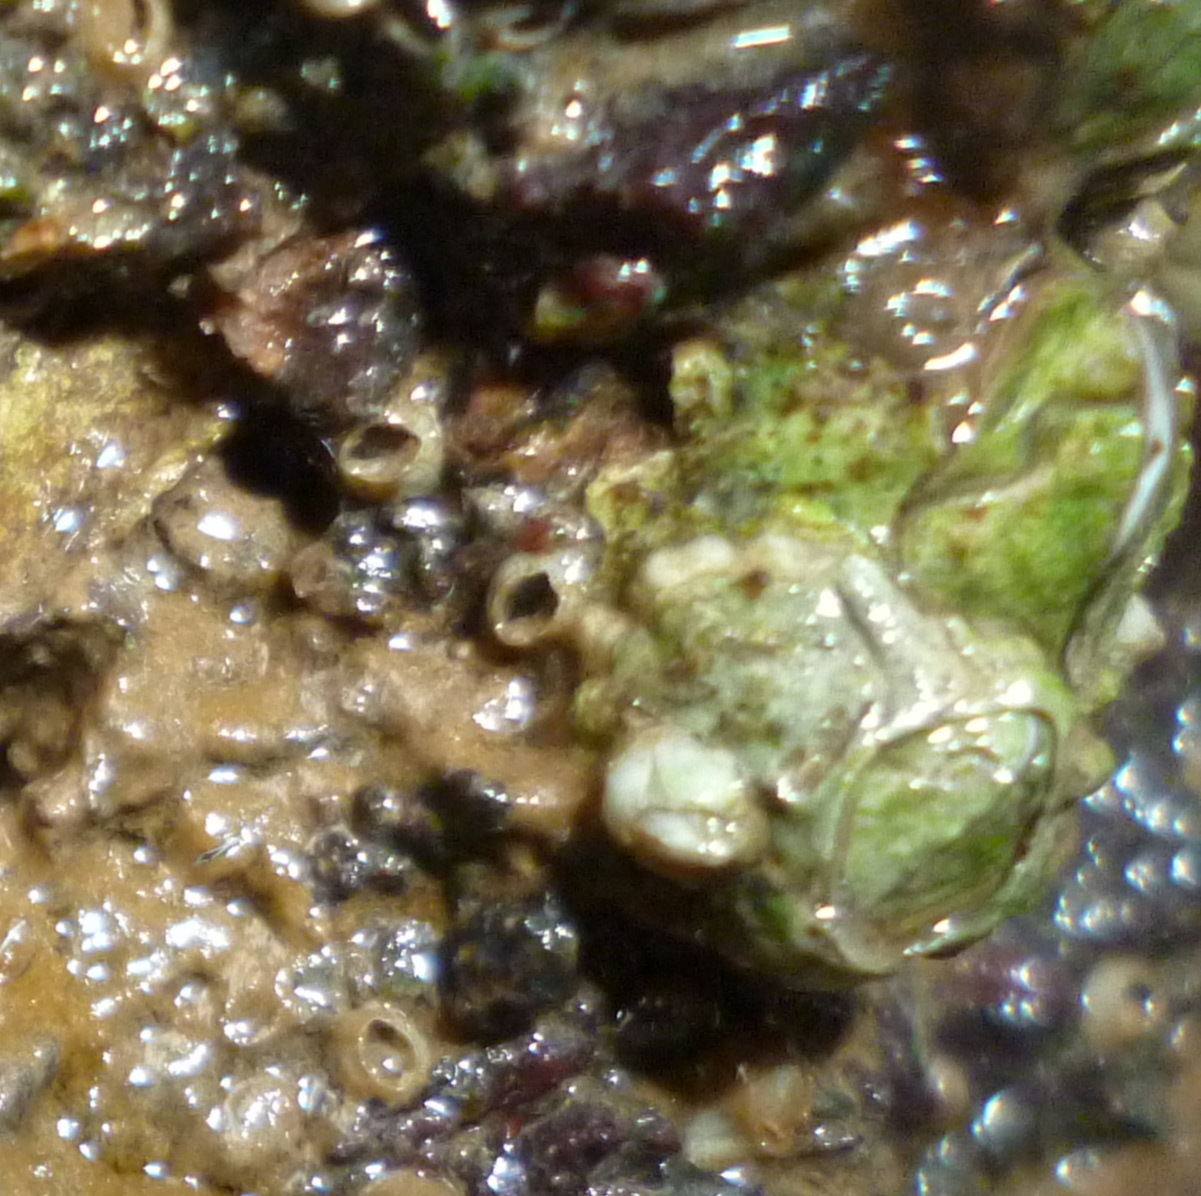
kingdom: Animalia
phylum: Arthropoda
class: Maxillopoda
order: Sessilia
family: Archaeobalanidae
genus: Semibalanus
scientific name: Semibalanus balanoides
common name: Acorn barnacle
